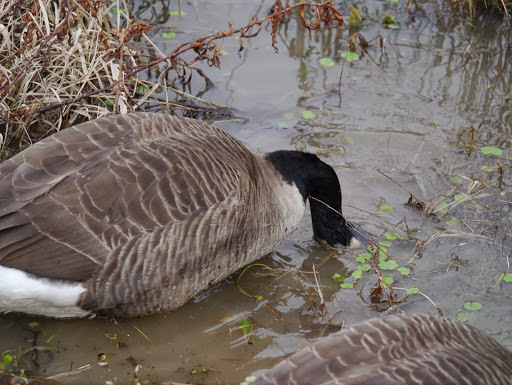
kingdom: Animalia
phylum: Chordata
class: Aves
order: Anseriformes
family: Anatidae
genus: Branta
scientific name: Branta canadensis
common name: Canada goose
